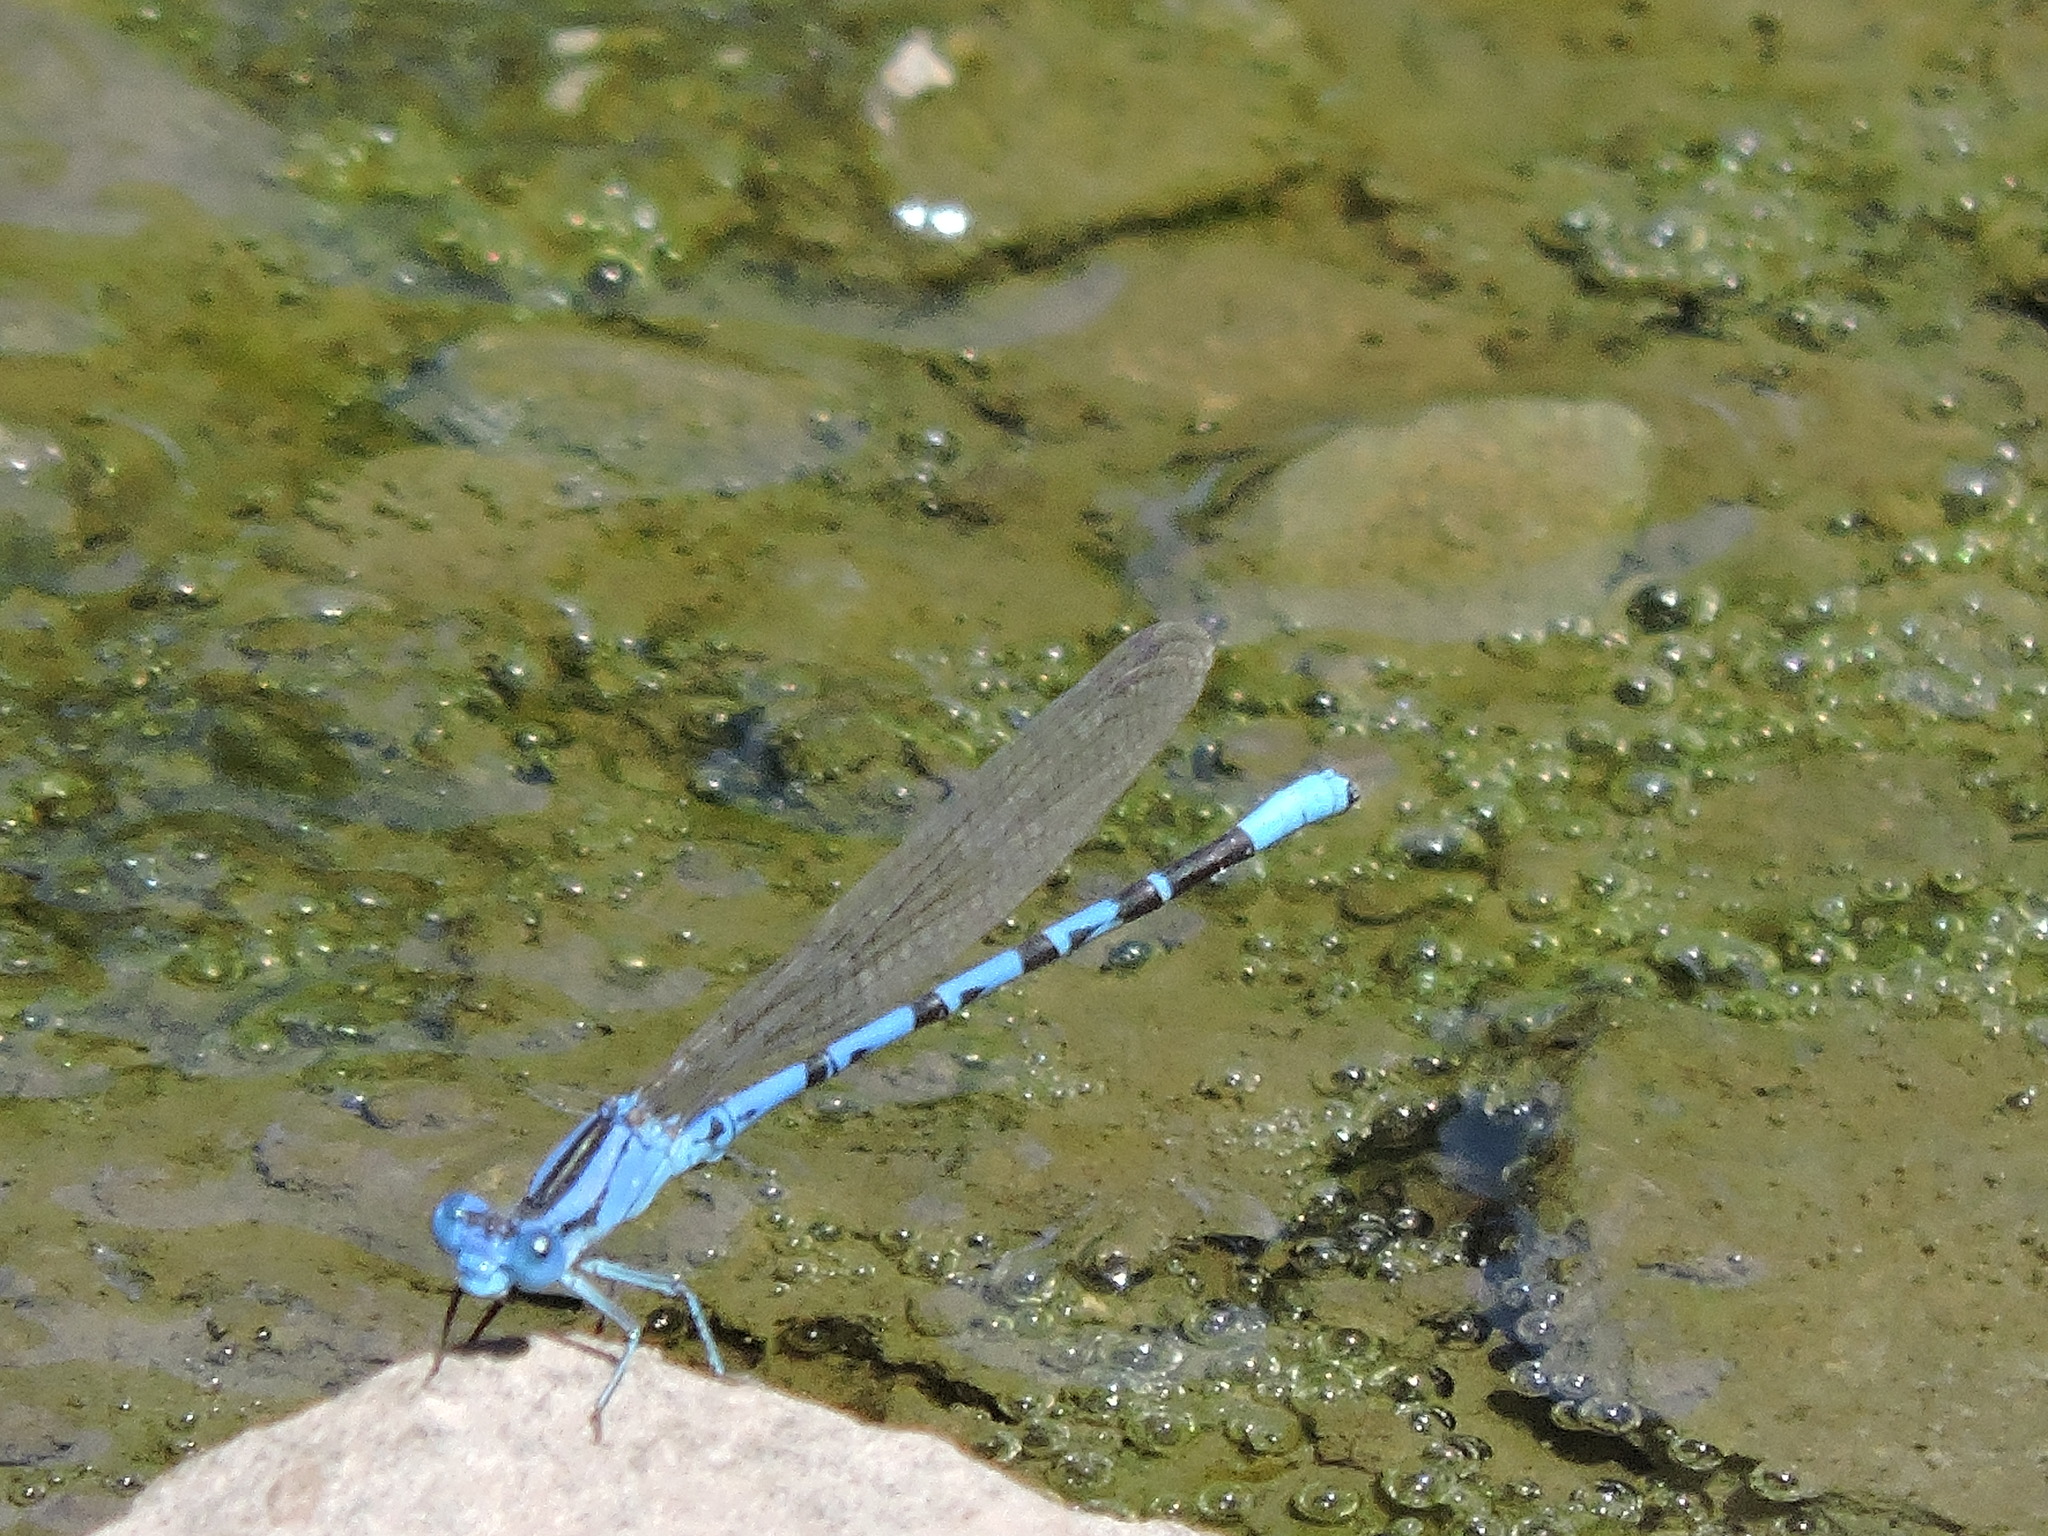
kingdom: Animalia
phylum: Arthropoda
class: Insecta
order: Odonata
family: Coenagrionidae
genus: Argia
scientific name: Argia vivida
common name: Vivid dancer
